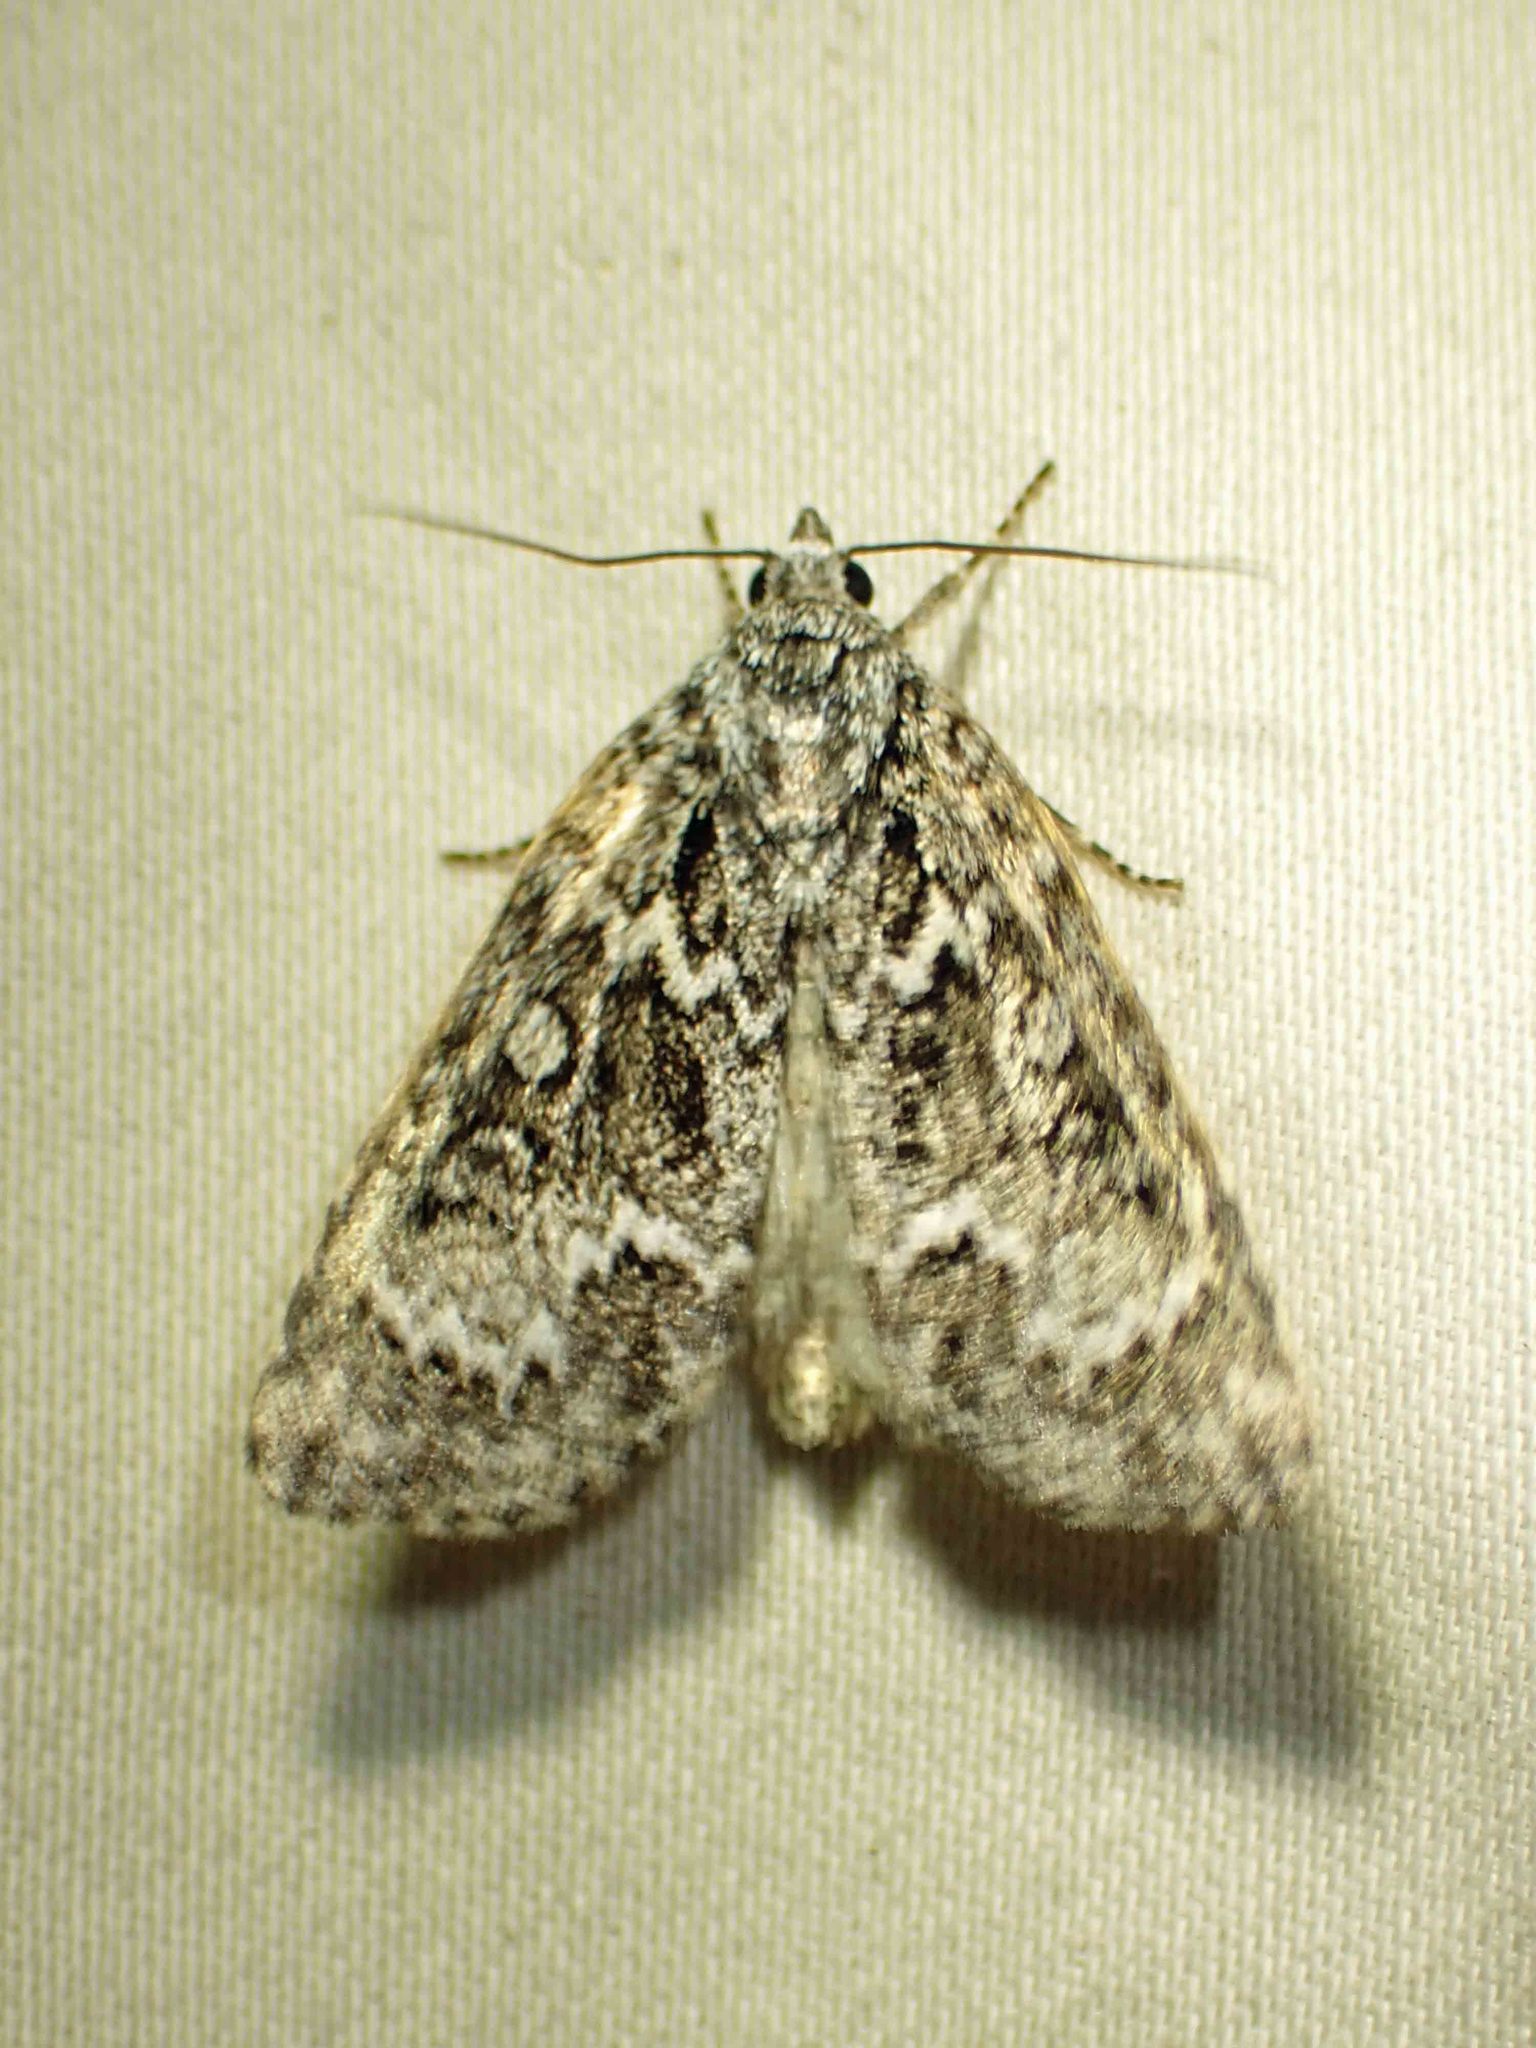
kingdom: Animalia
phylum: Arthropoda
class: Insecta
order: Lepidoptera
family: Noctuidae
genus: Acronicta
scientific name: Acronicta fragilis
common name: Fragile dagger
